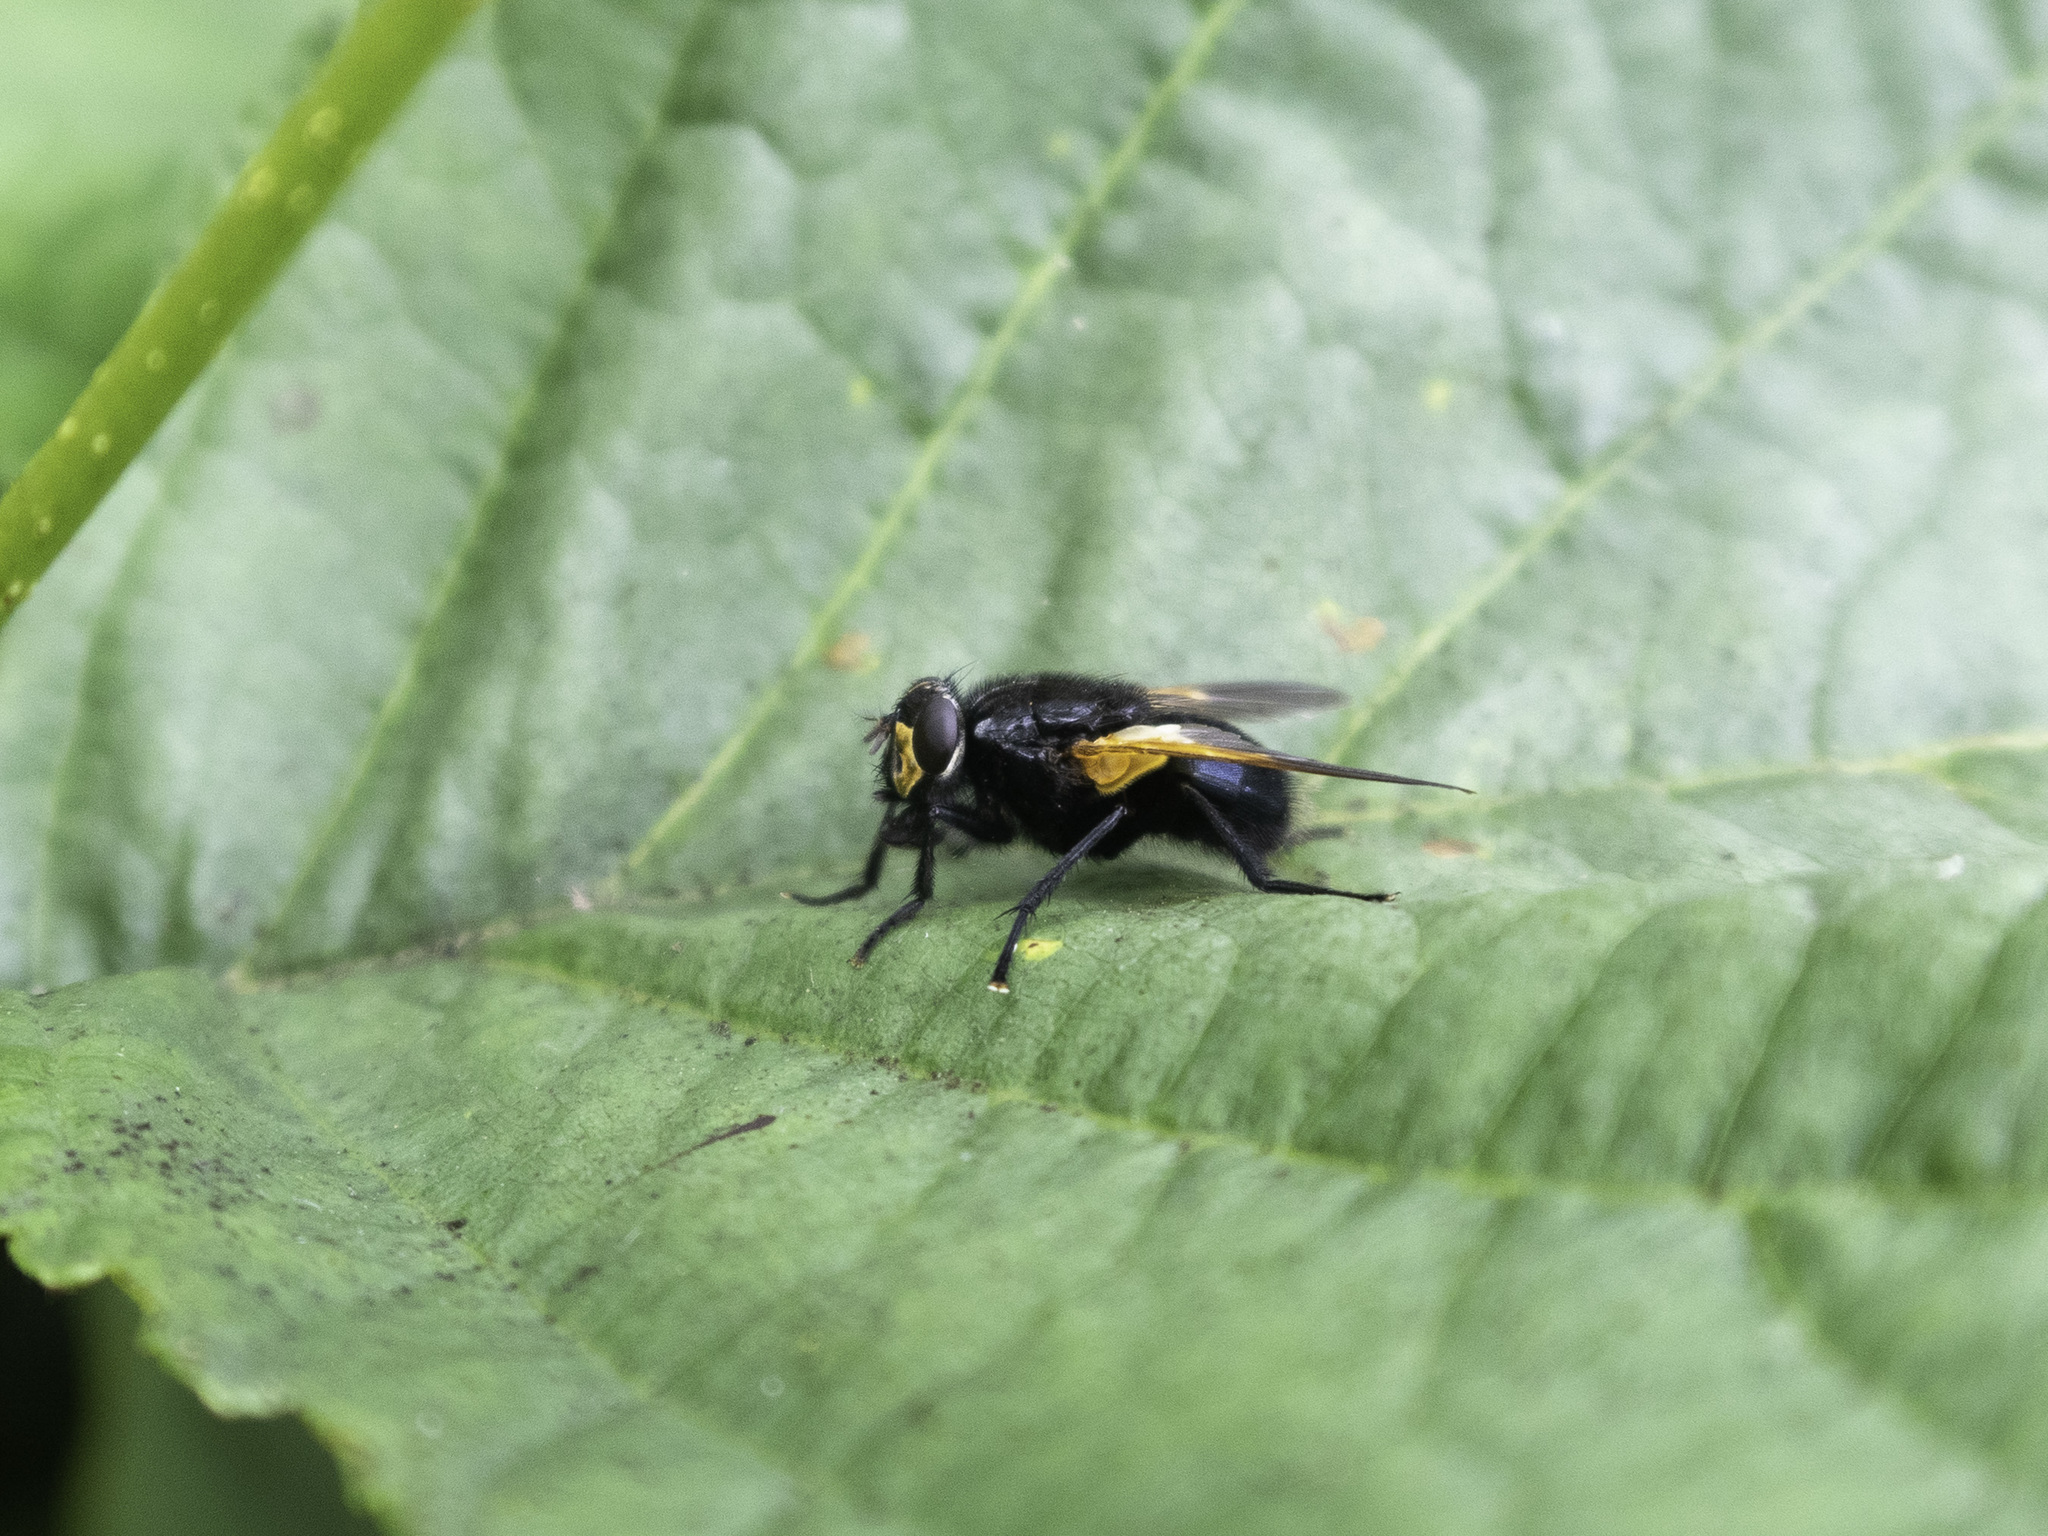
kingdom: Animalia
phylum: Arthropoda
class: Insecta
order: Diptera
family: Muscidae
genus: Mesembrina
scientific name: Mesembrina meridiana
